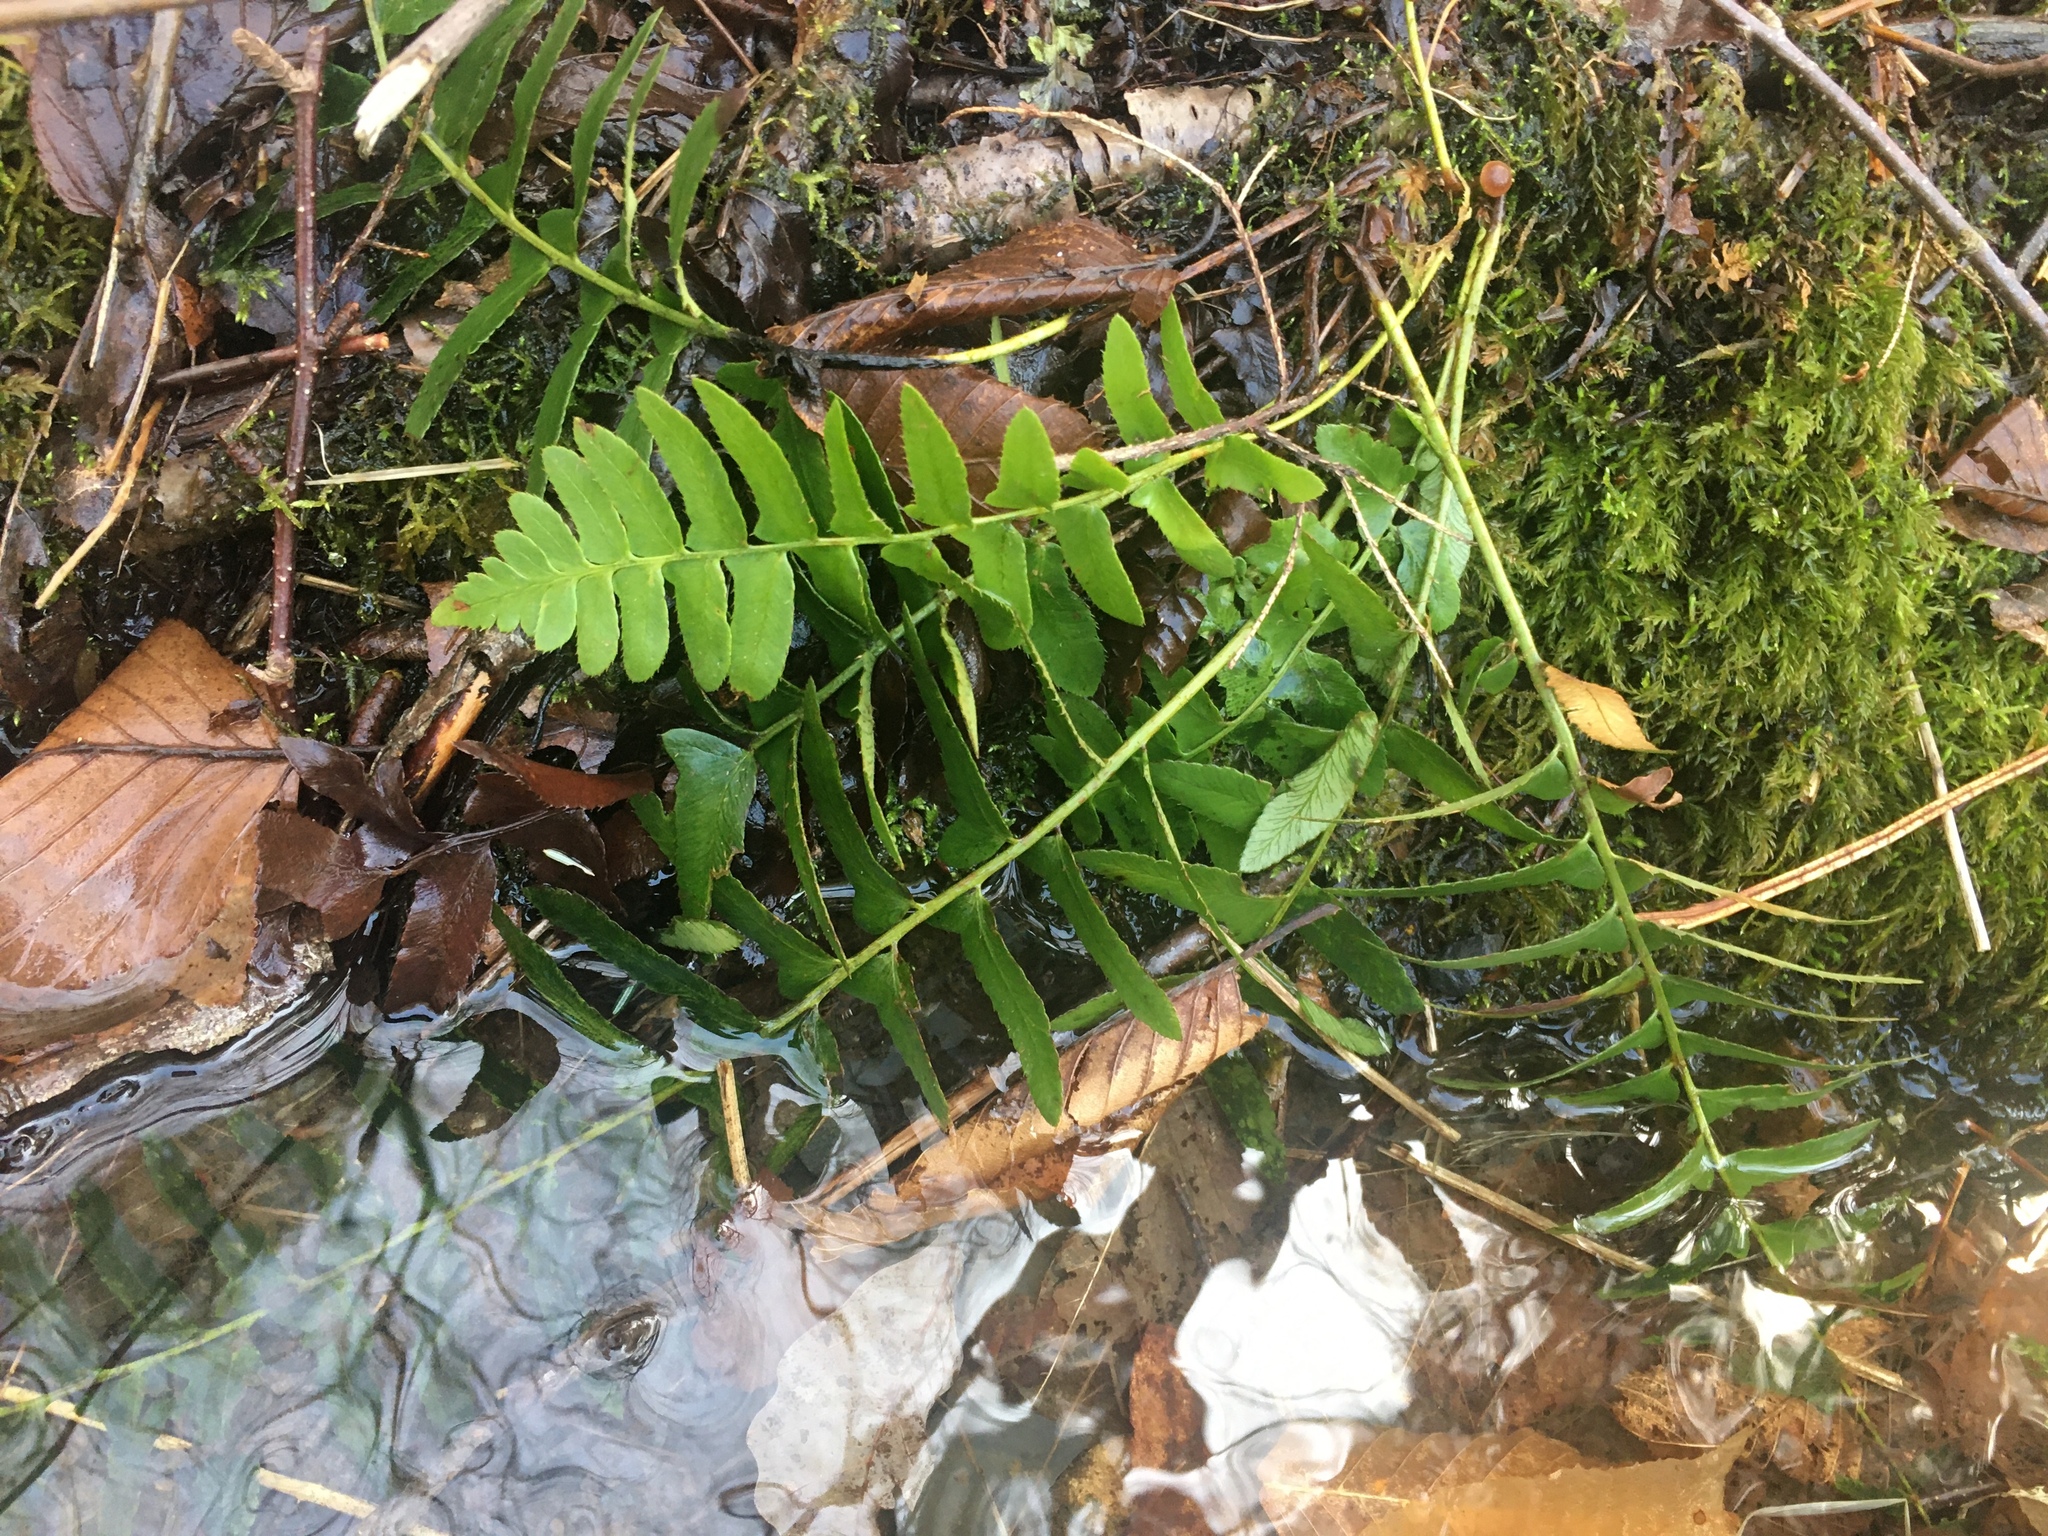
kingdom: Plantae
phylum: Tracheophyta
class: Polypodiopsida
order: Polypodiales
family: Dryopteridaceae
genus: Polystichum
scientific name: Polystichum acrostichoides
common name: Christmas fern
